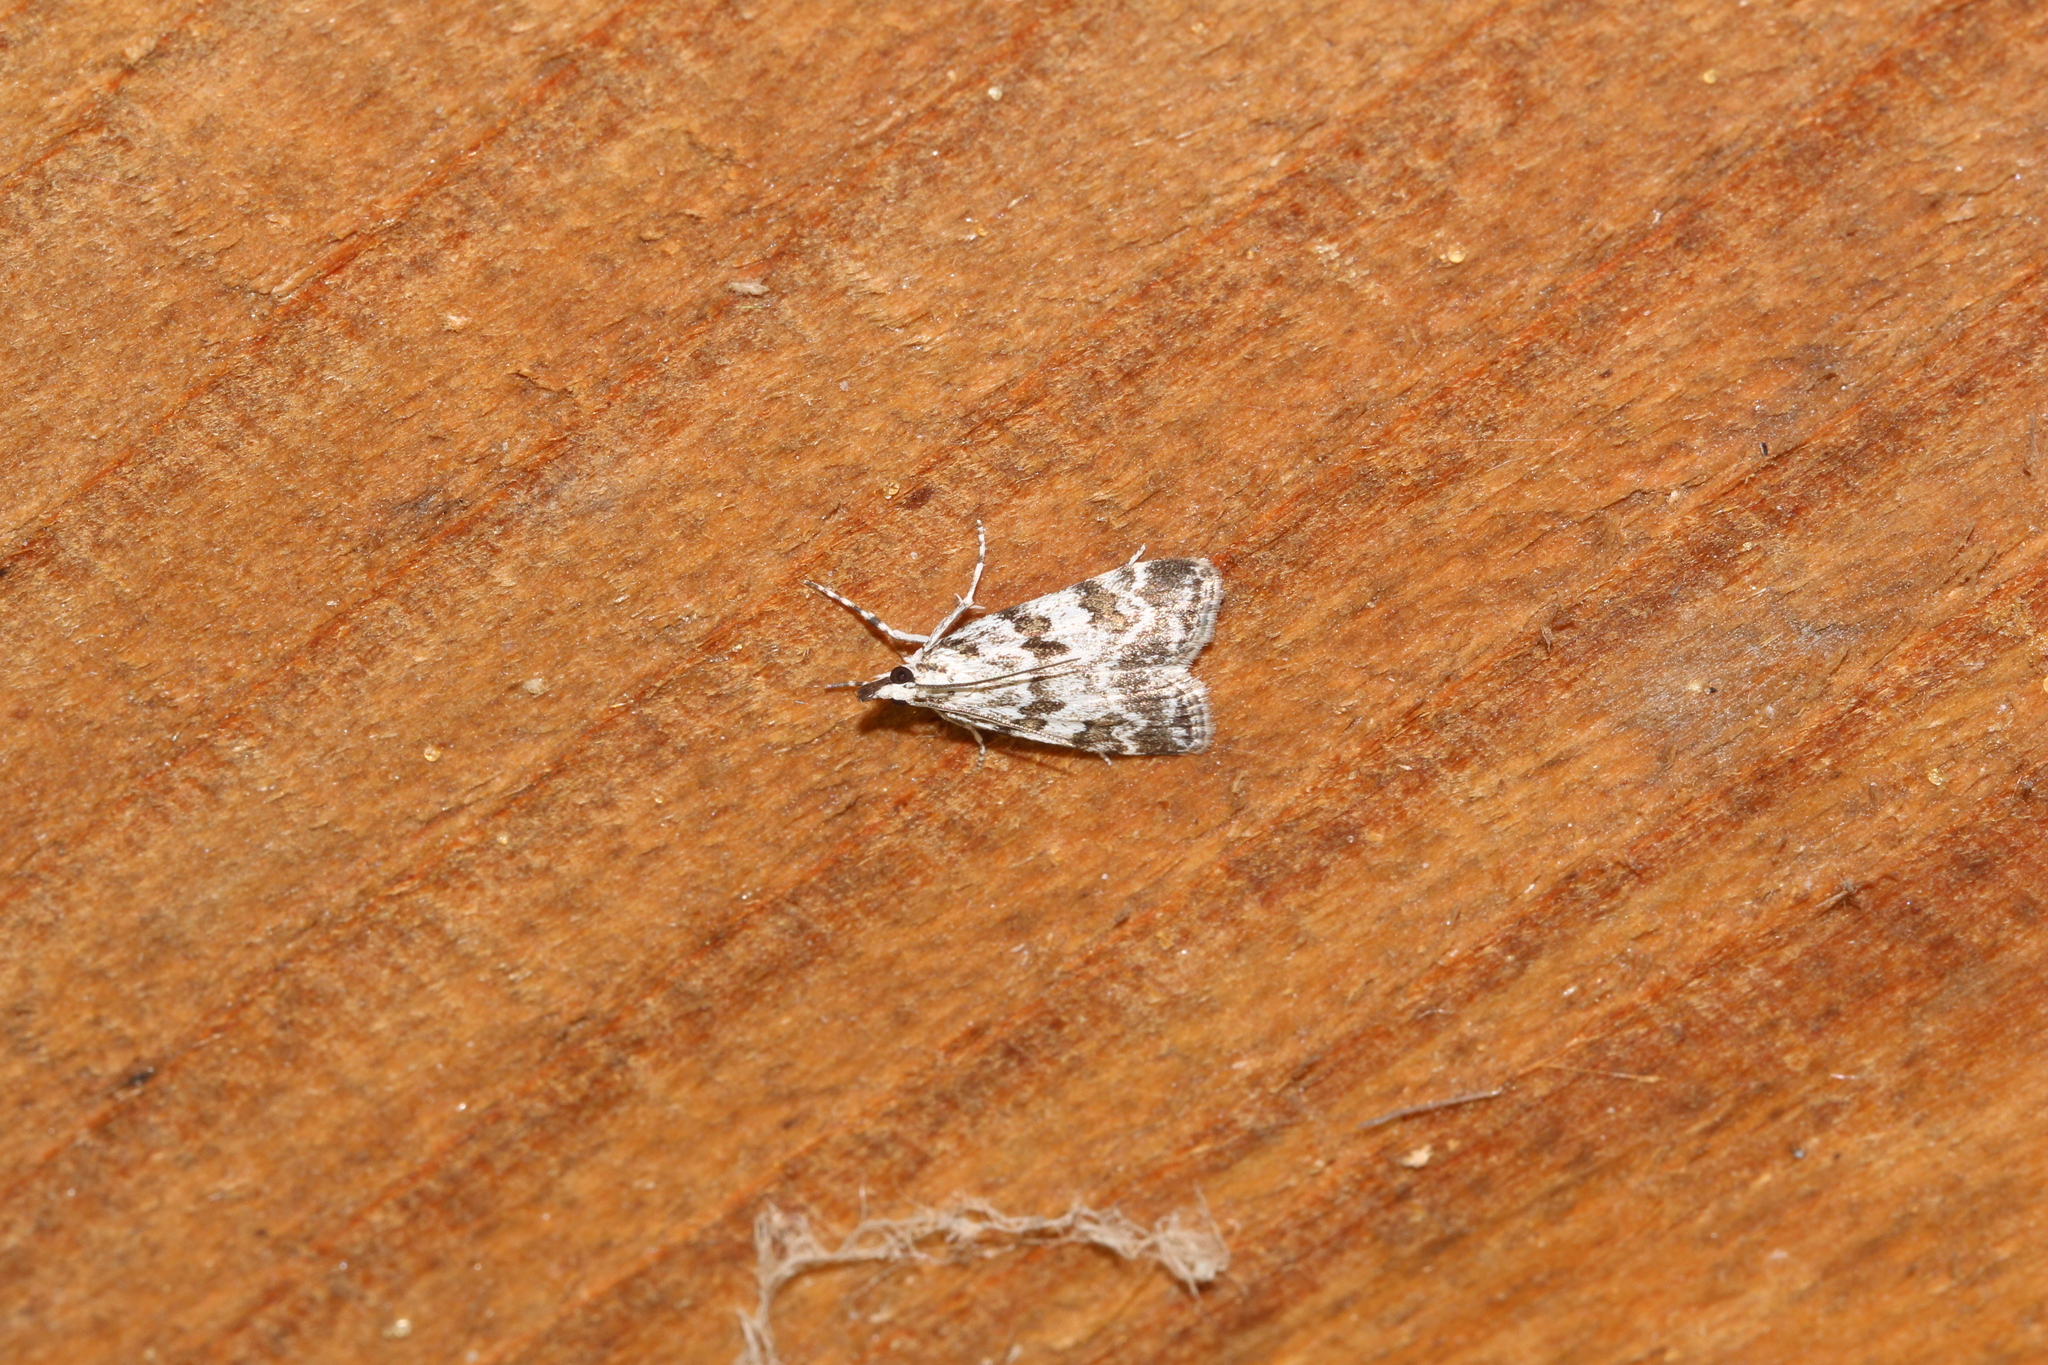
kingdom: Animalia
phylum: Arthropoda
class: Insecta
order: Lepidoptera
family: Crambidae
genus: Scoparia
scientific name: Scoparia pyralella
